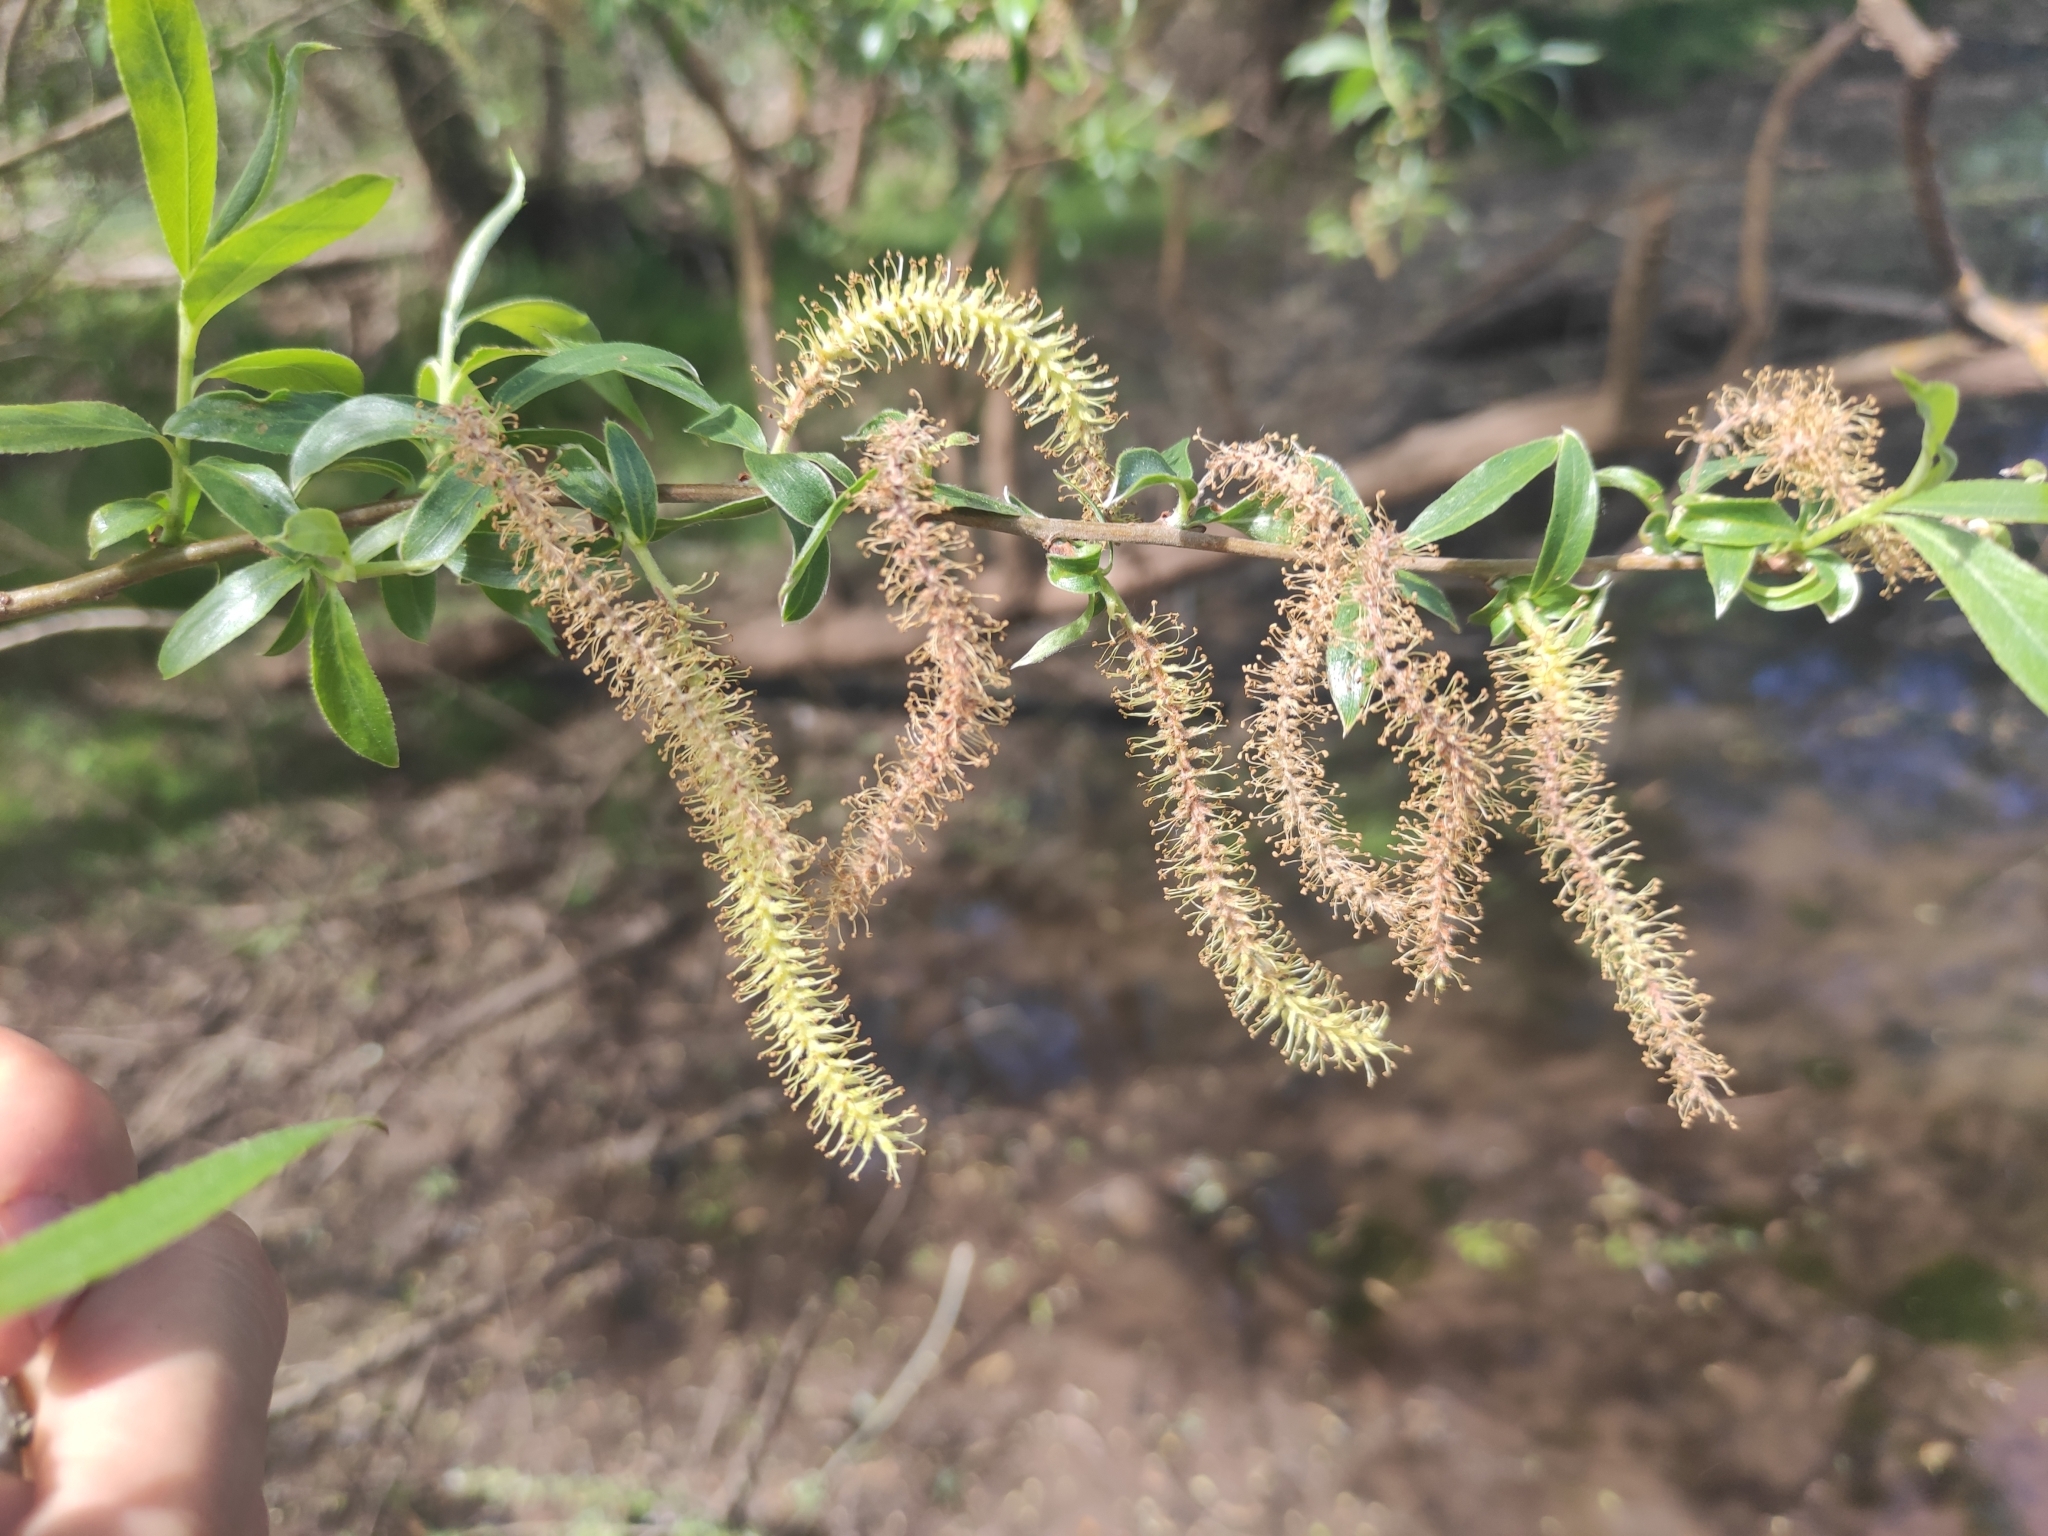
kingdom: Plantae
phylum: Tracheophyta
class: Magnoliopsida
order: Malpighiales
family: Salicaceae
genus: Salix
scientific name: Salix alba
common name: White willow
